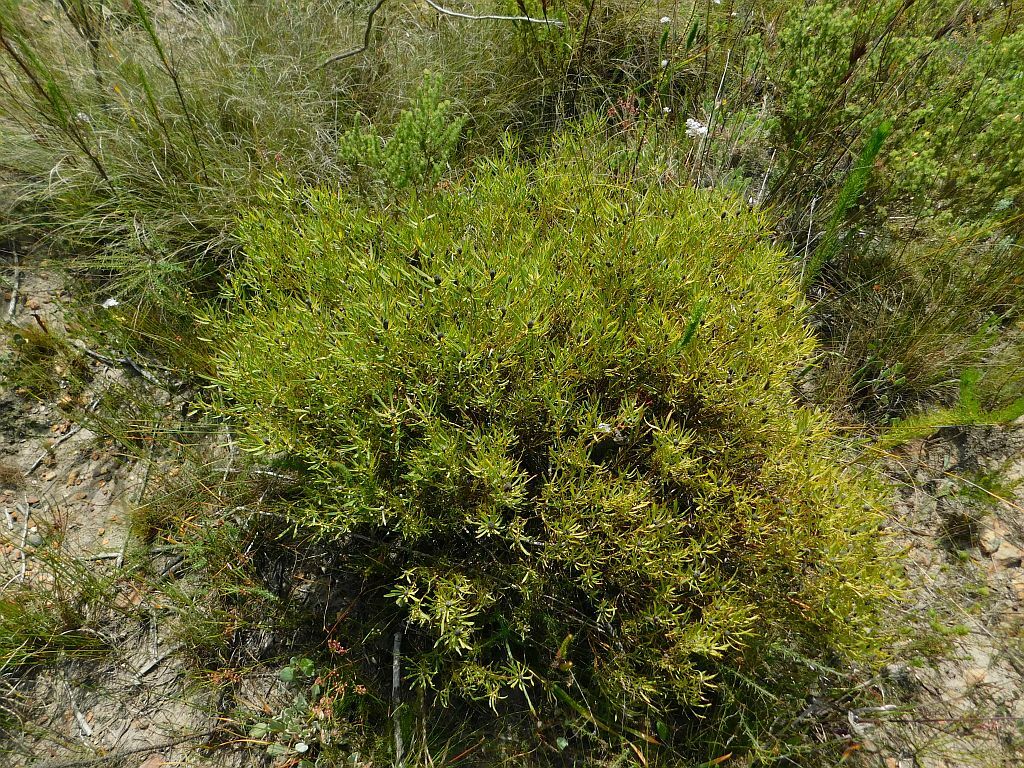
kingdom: Plantae
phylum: Tracheophyta
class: Magnoliopsida
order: Proteales
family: Proteaceae
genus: Leucadendron
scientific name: Leucadendron salignum
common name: Common sunshine conebush
